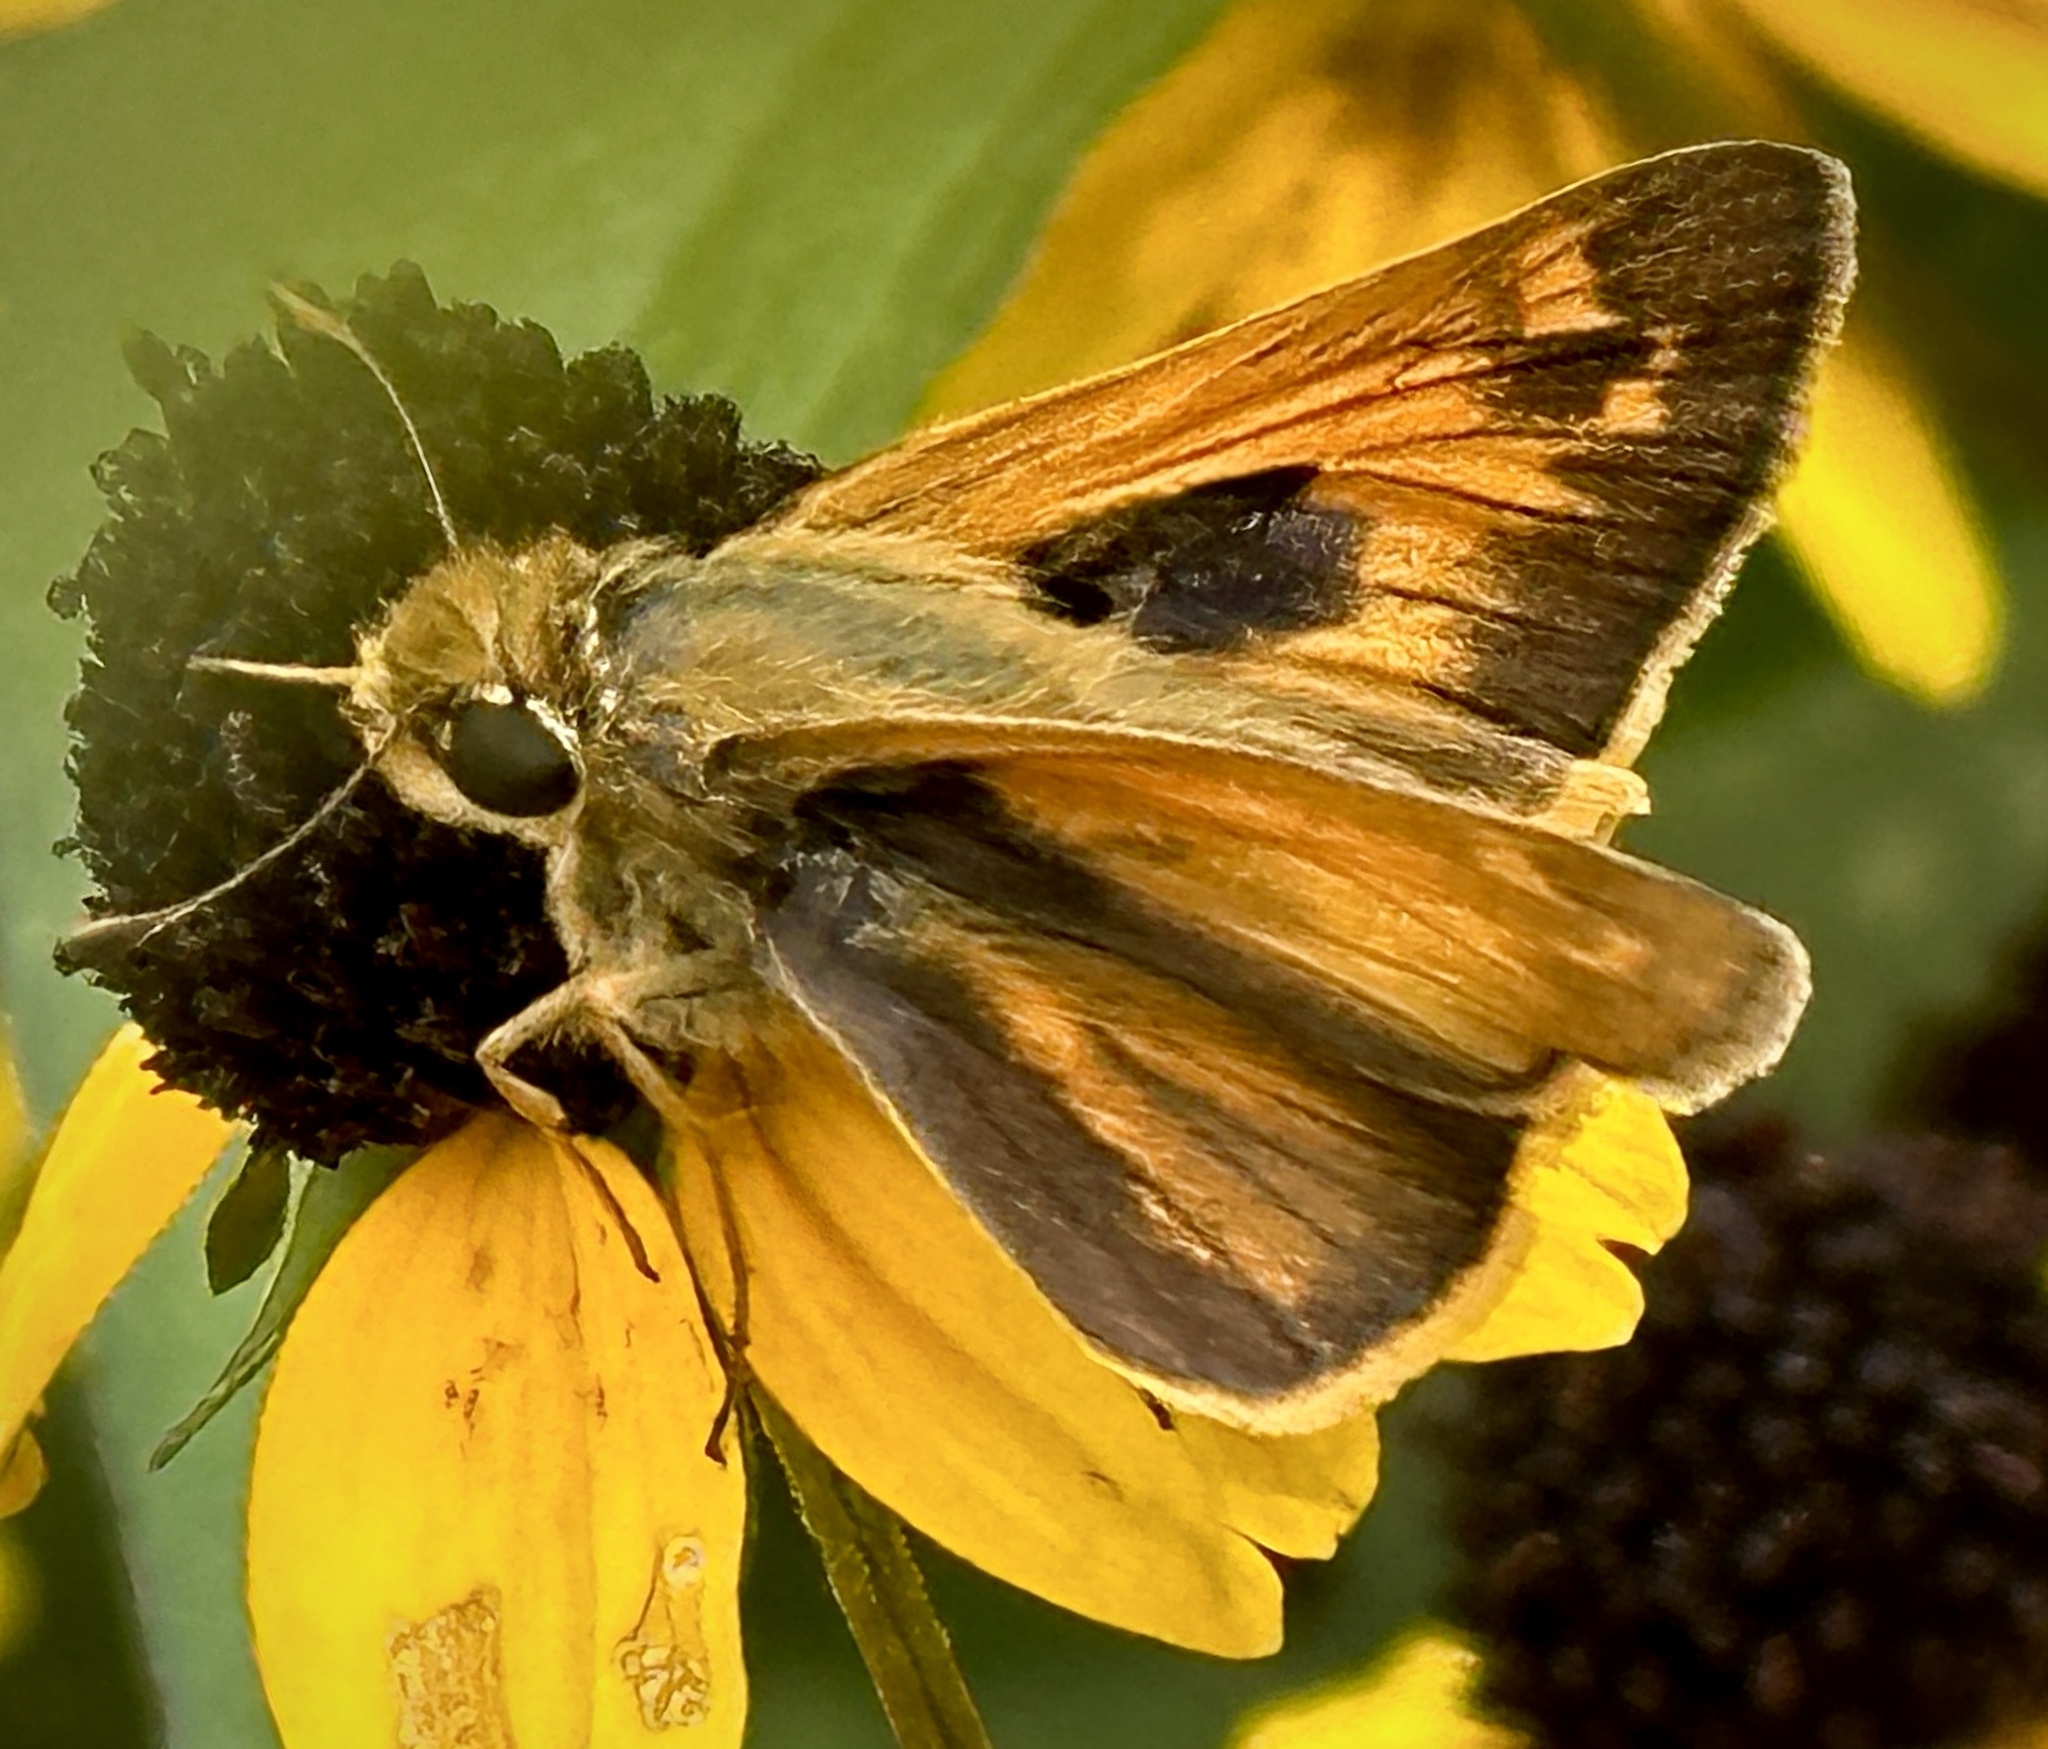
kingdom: Animalia
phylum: Arthropoda
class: Insecta
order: Lepidoptera
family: Hesperiidae
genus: Atalopedes
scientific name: Atalopedes
